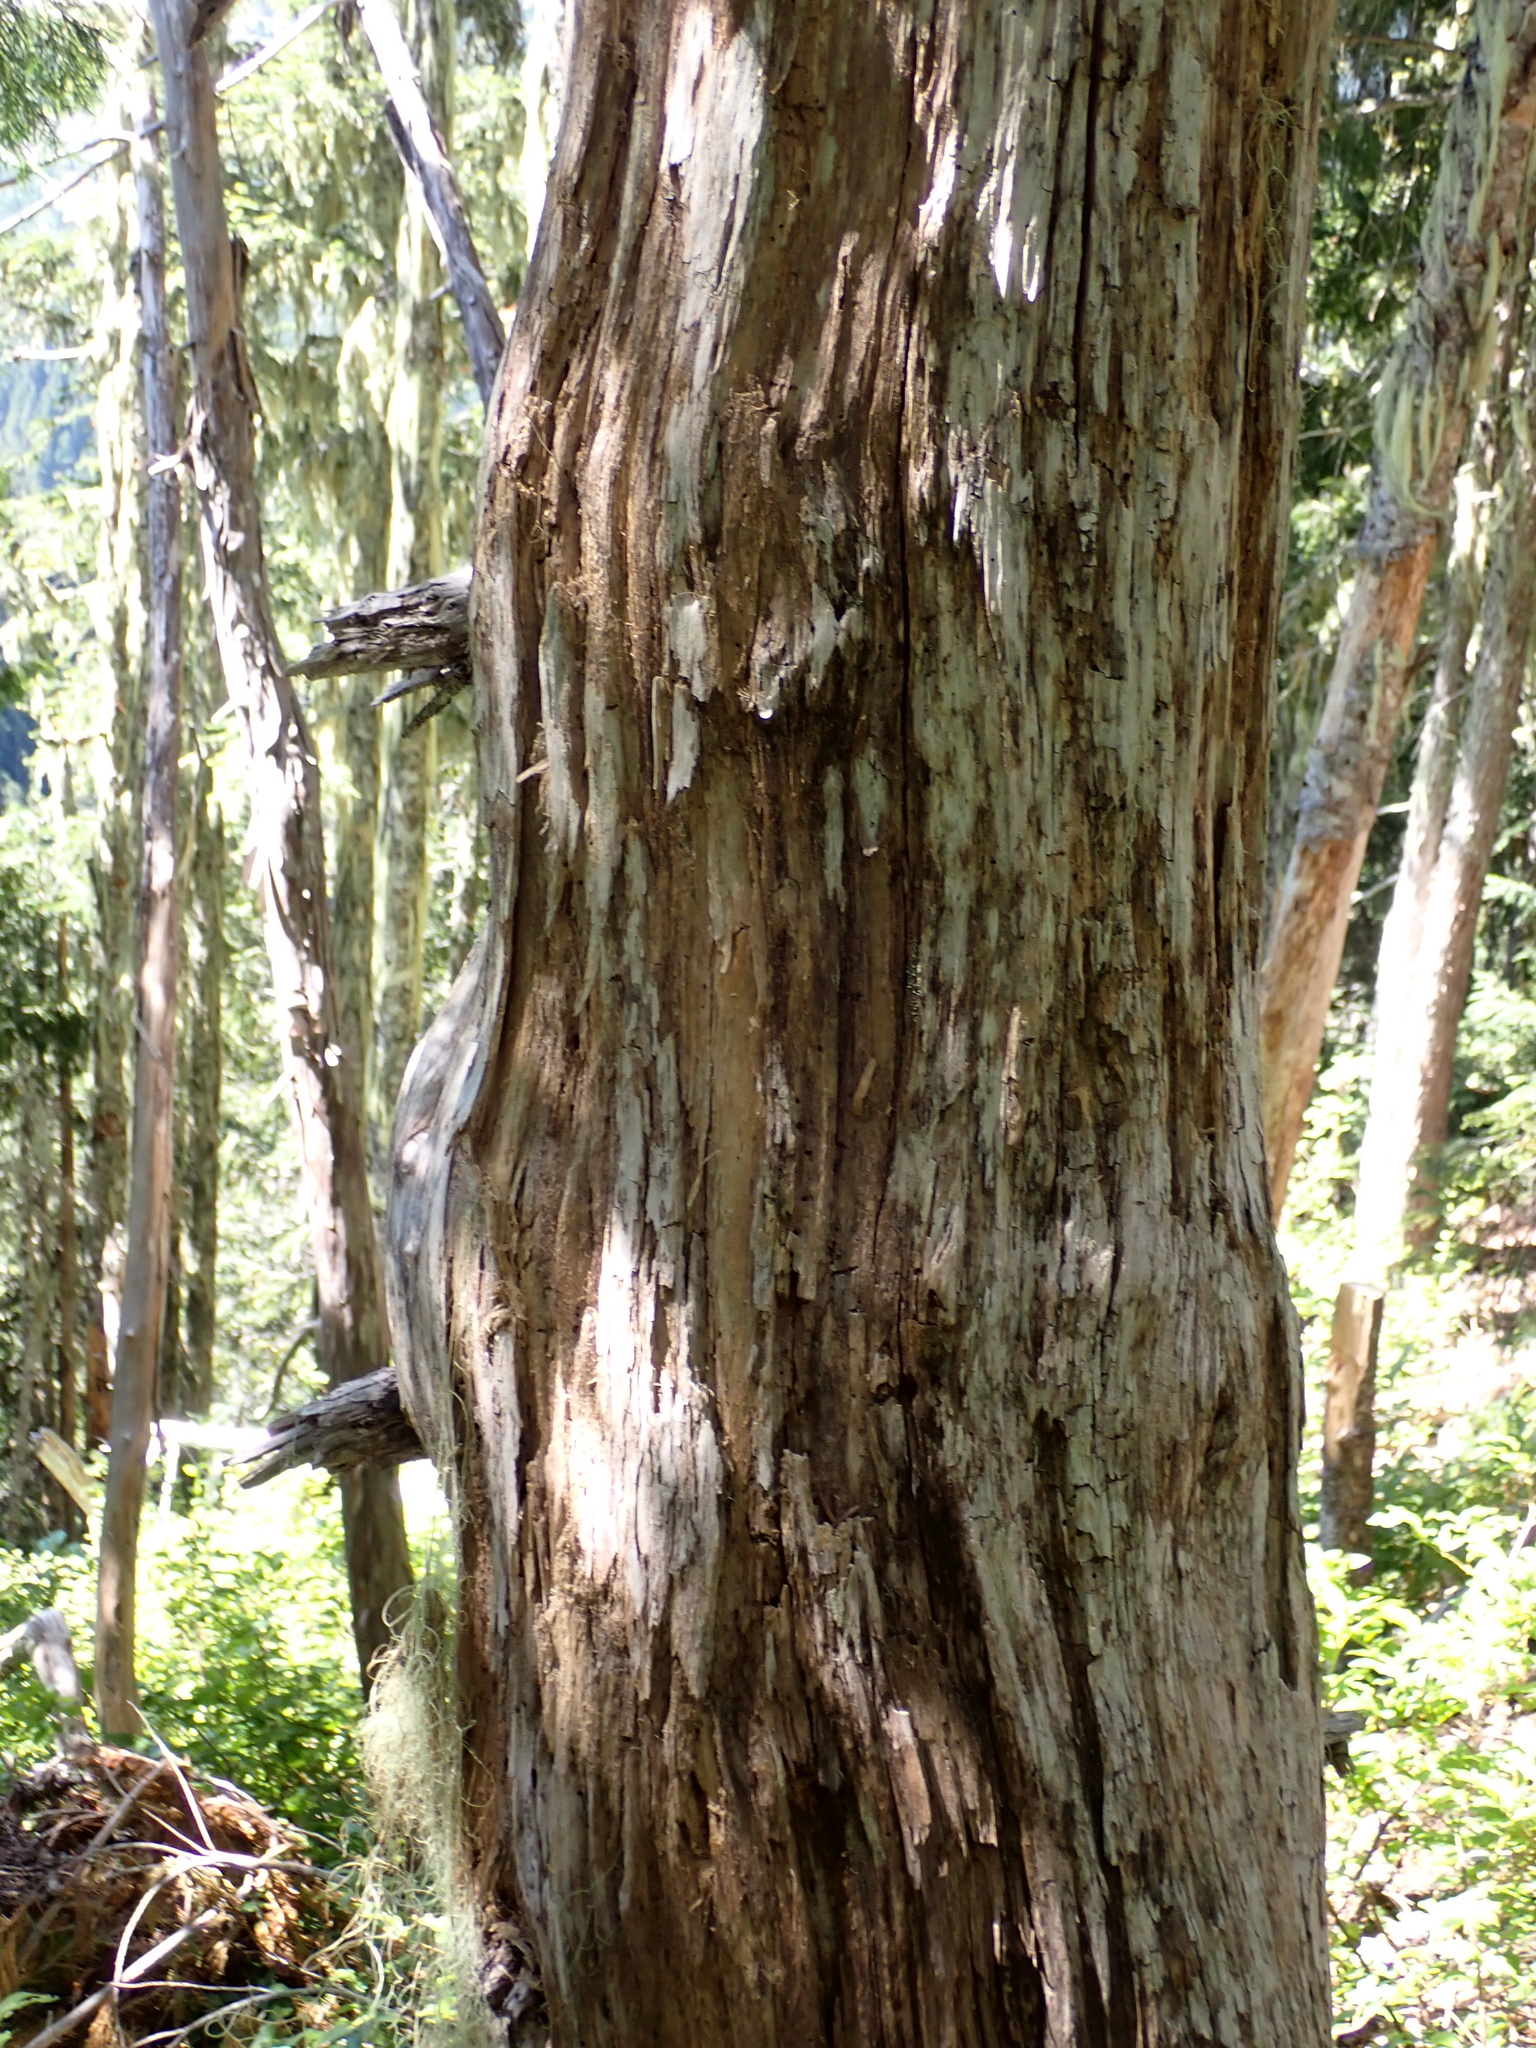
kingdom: Plantae
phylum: Tracheophyta
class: Pinopsida
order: Pinales
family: Cupressaceae
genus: Xanthocyparis
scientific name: Xanthocyparis nootkatensis
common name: Nootka cypress
